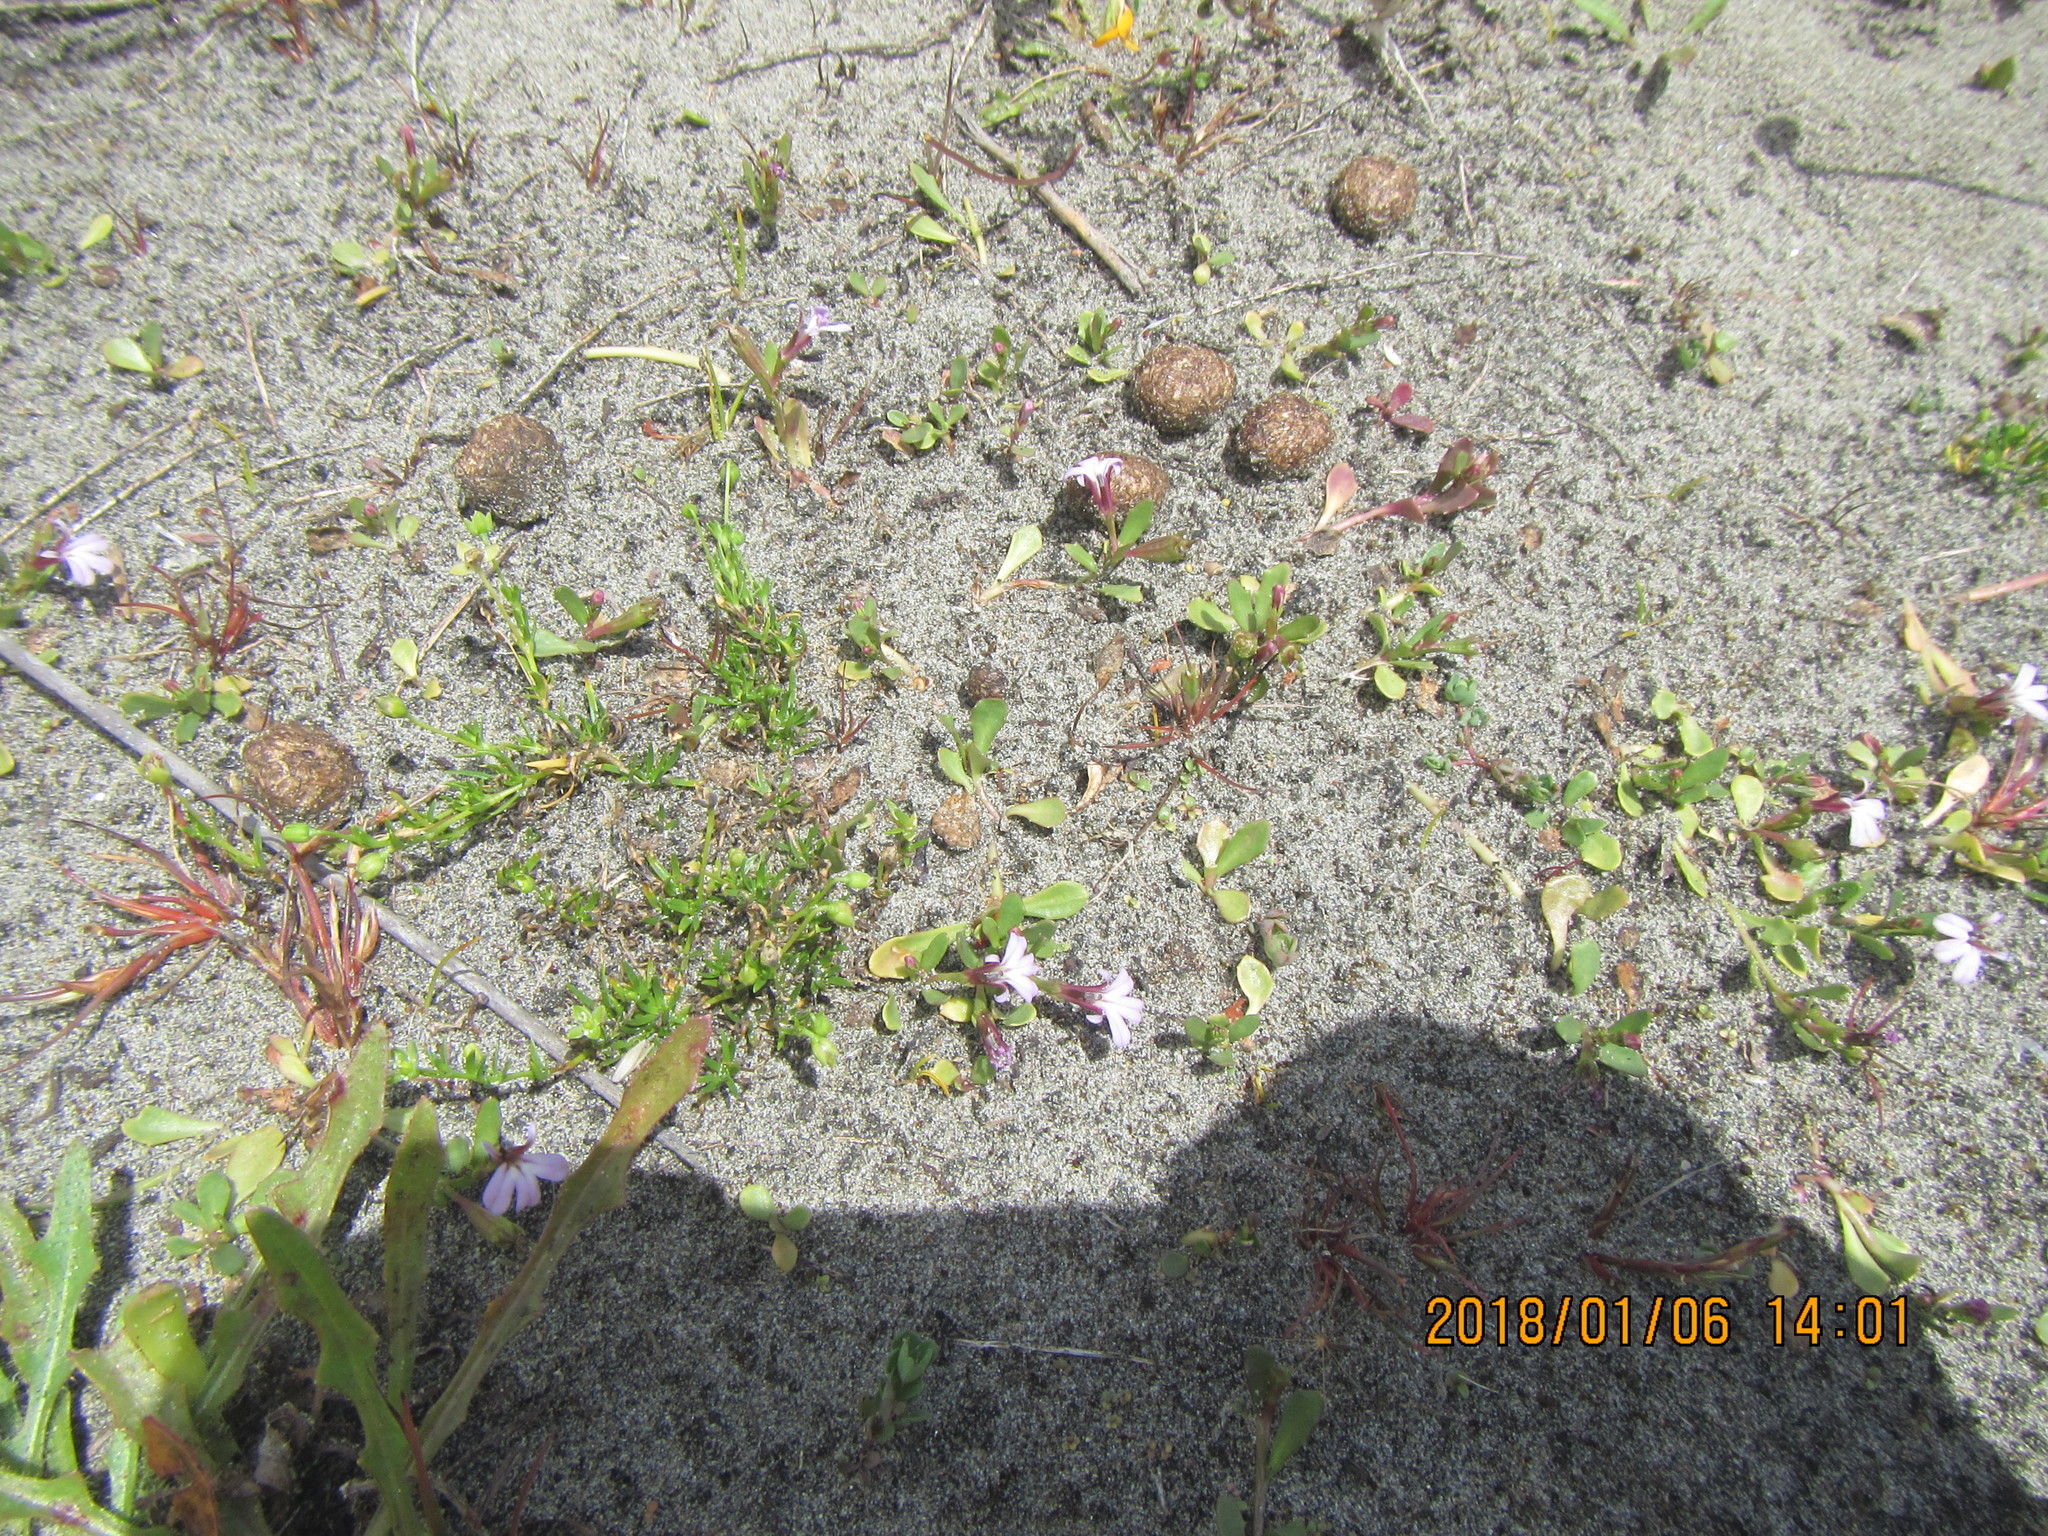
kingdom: Plantae
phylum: Tracheophyta
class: Magnoliopsida
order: Asterales
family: Campanulaceae
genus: Lobelia
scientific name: Lobelia anceps
